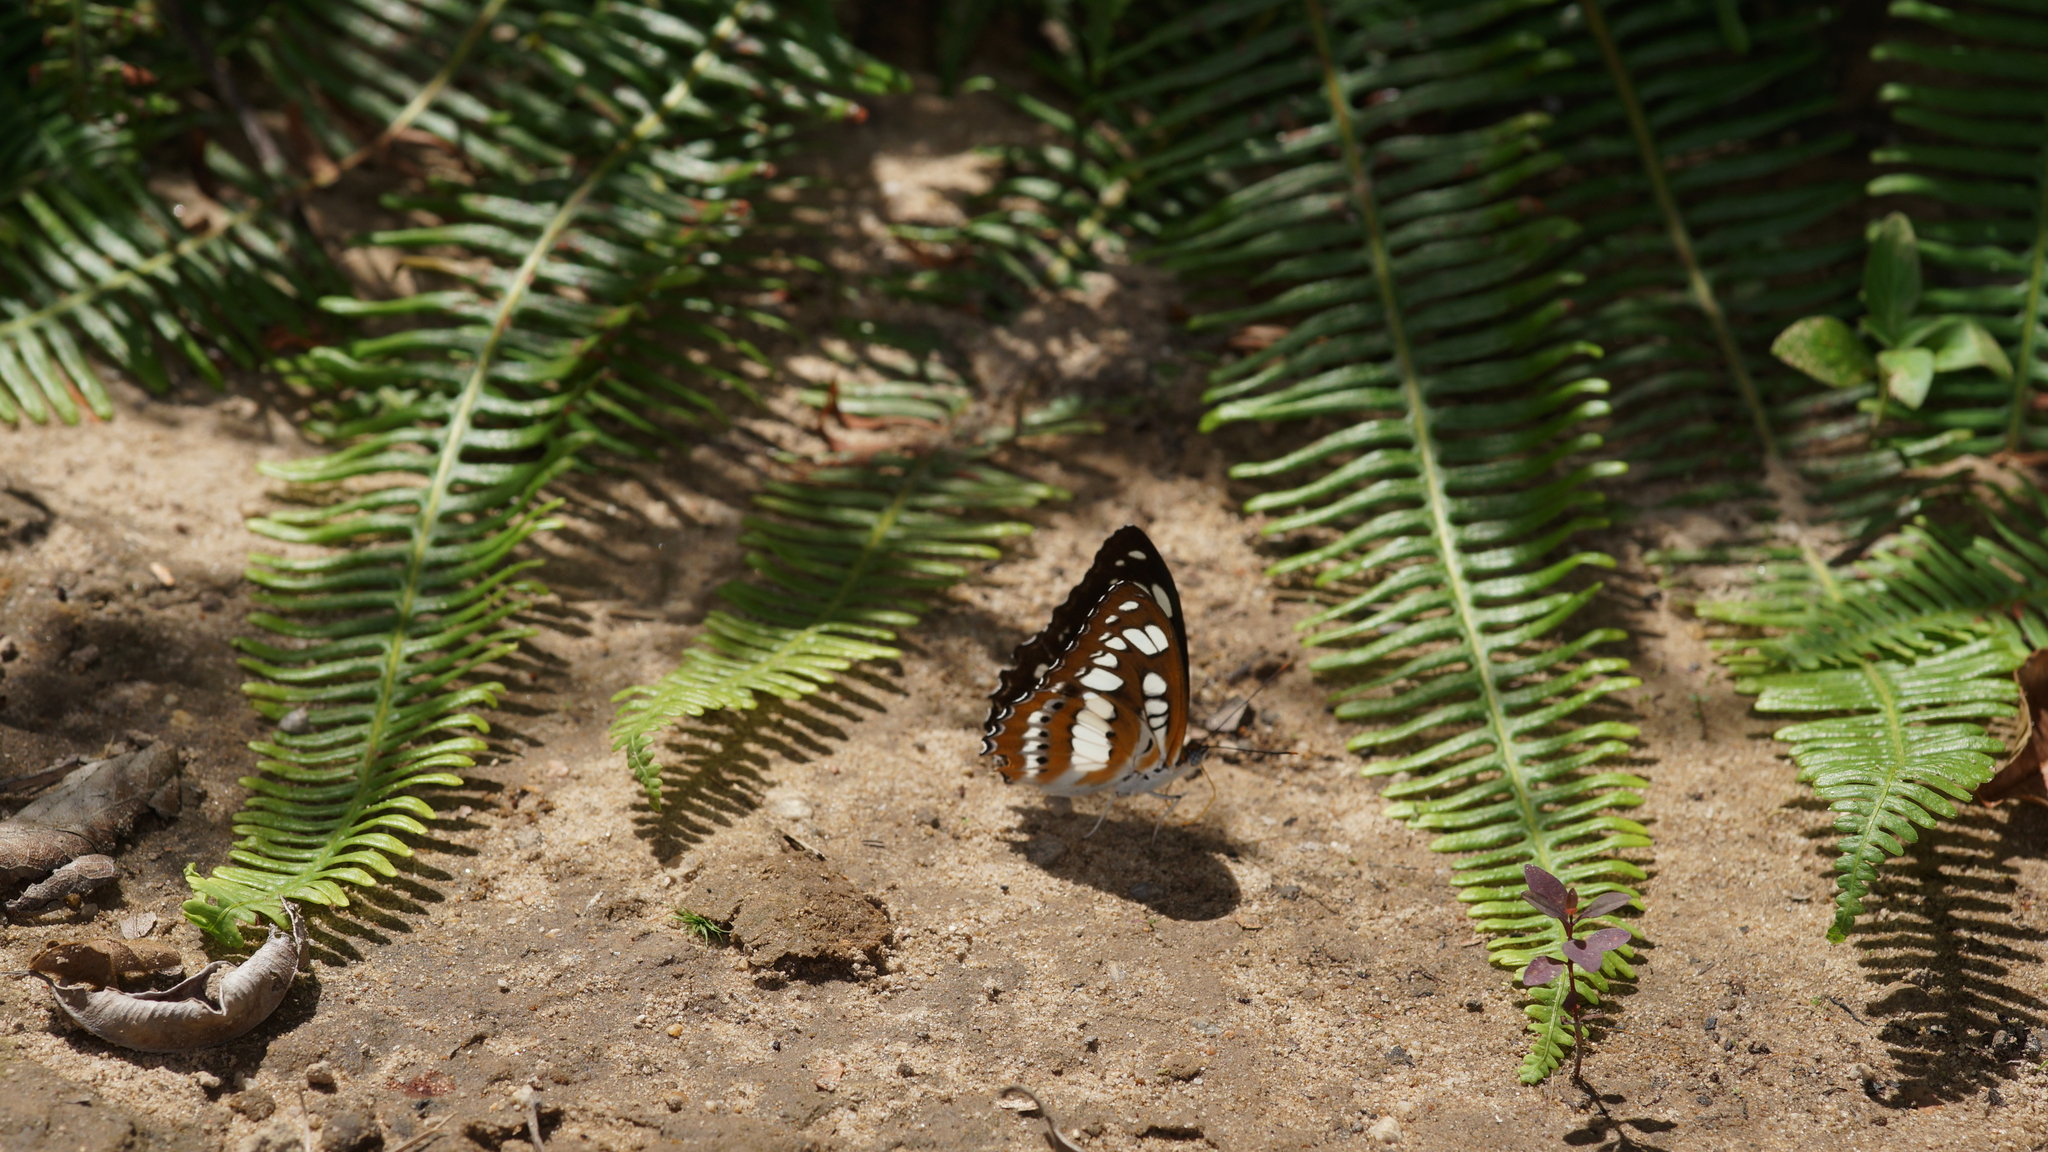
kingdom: Animalia
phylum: Arthropoda
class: Insecta
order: Lepidoptera
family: Nymphalidae
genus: Parathyma
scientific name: Parathyma perius
